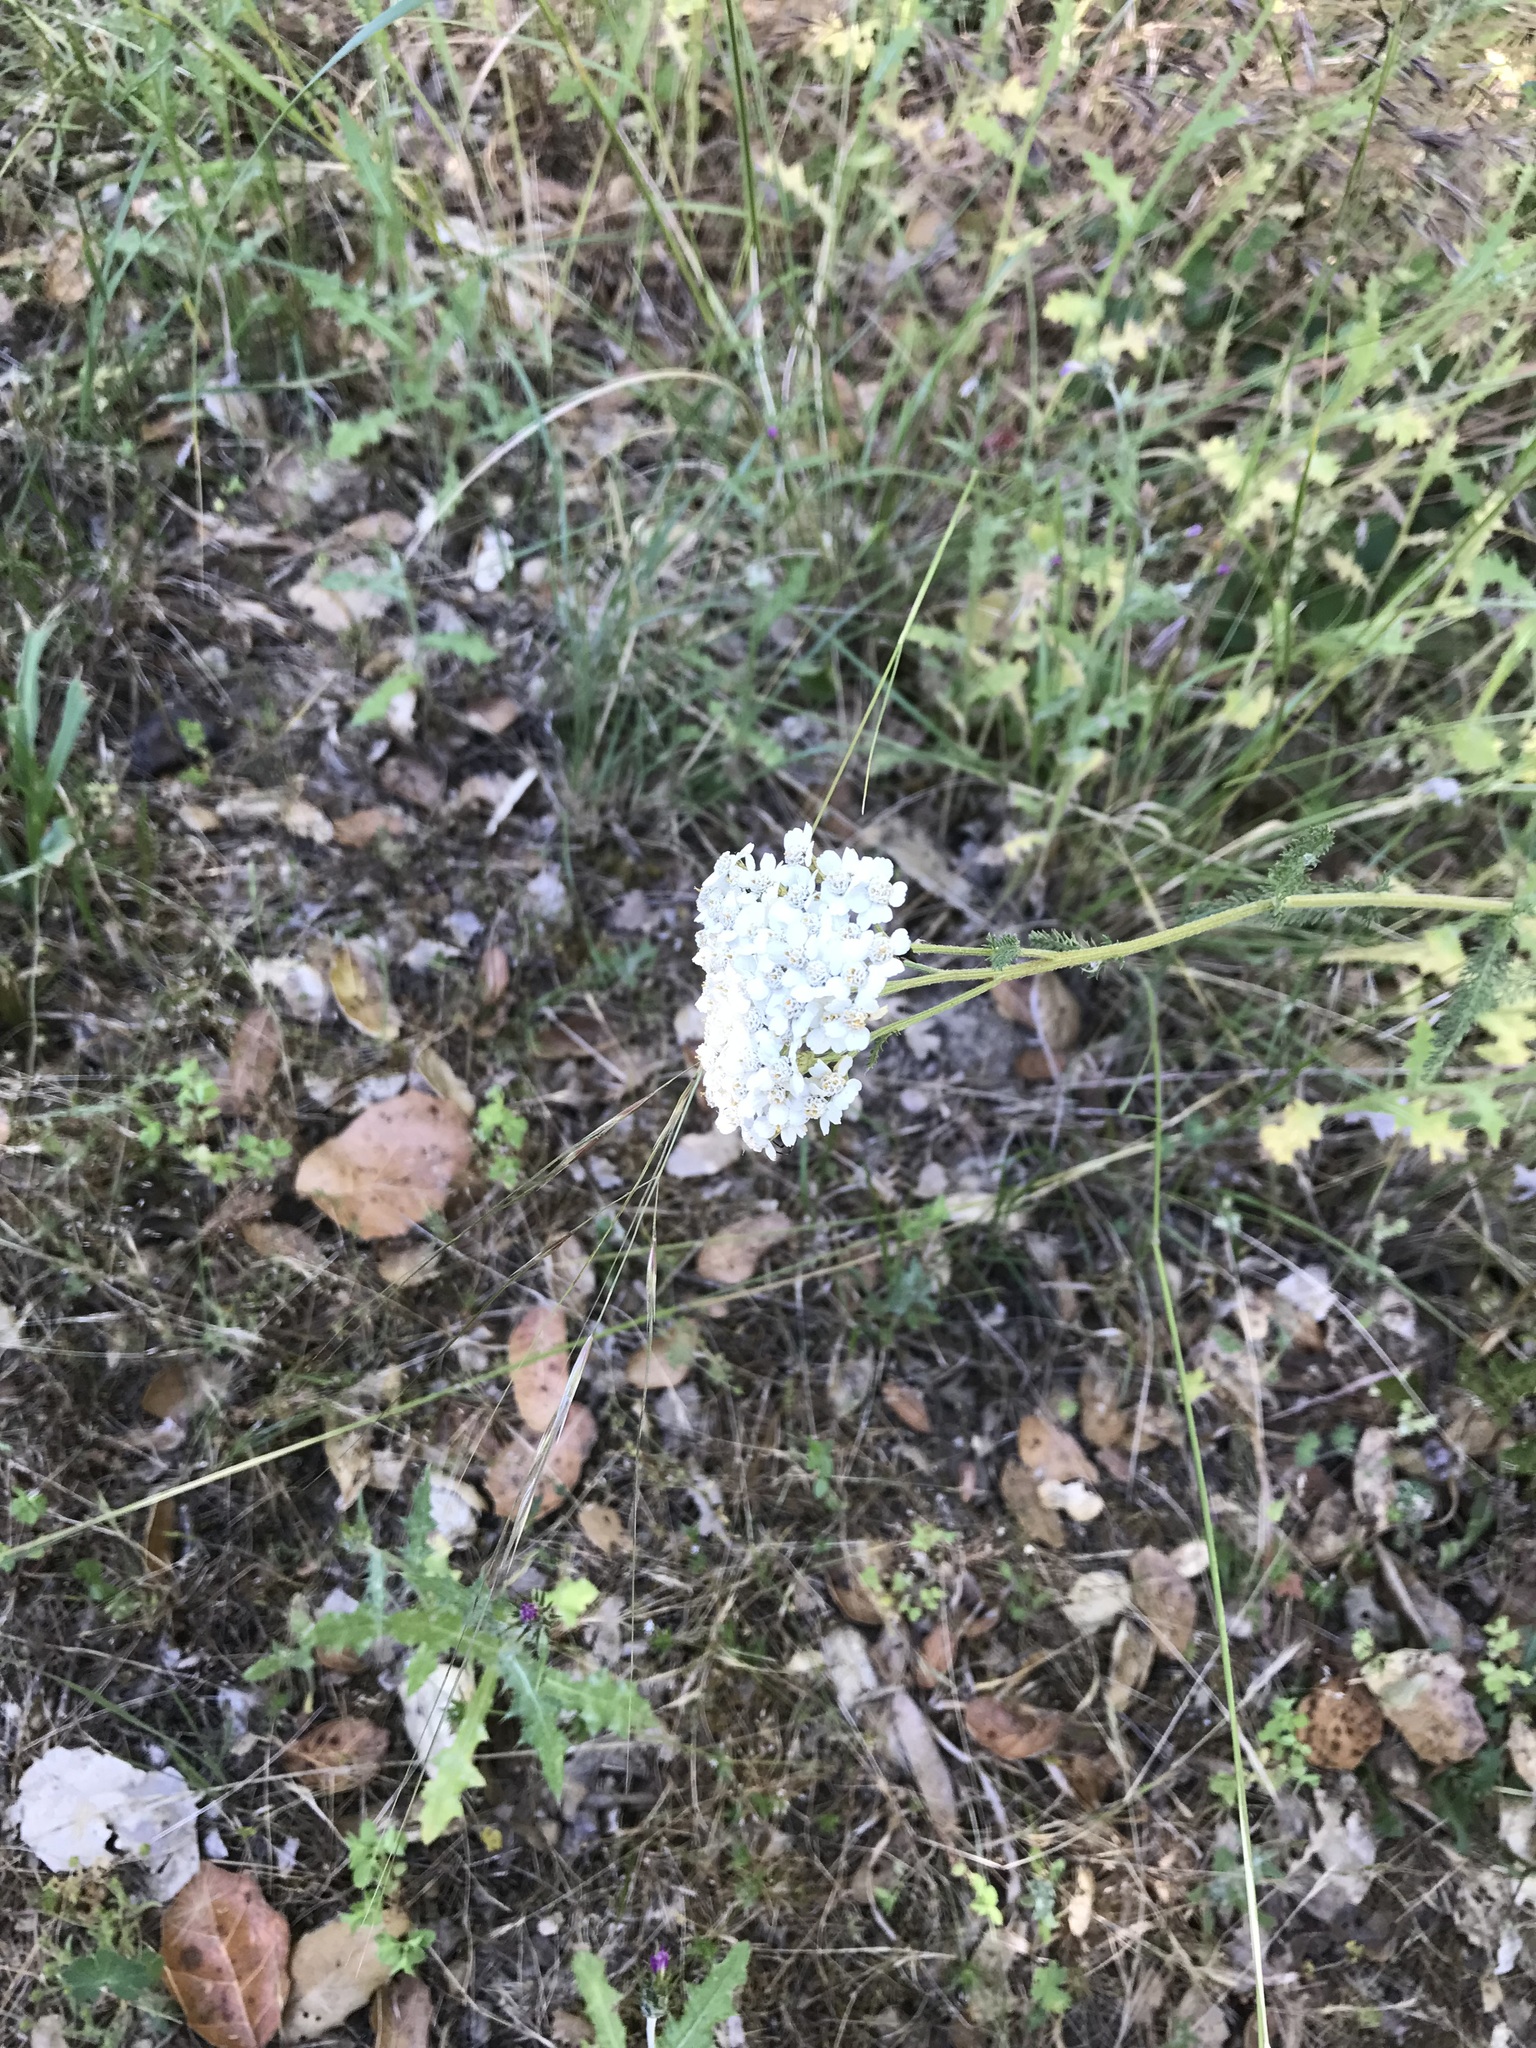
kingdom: Plantae
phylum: Tracheophyta
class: Magnoliopsida
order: Asterales
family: Asteraceae
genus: Achillea
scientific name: Achillea millefolium
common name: Yarrow
